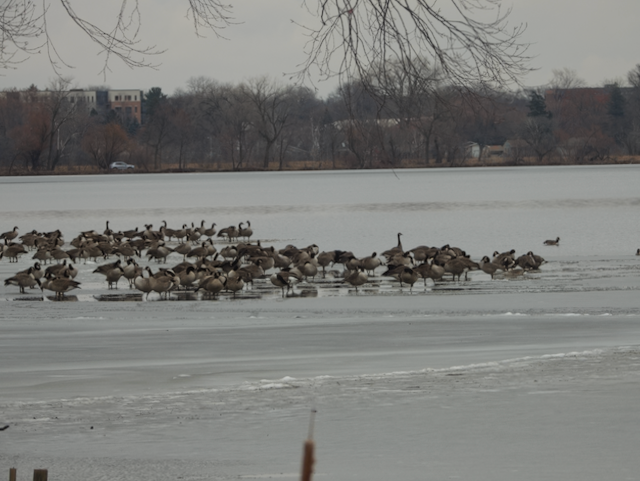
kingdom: Animalia
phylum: Chordata
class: Aves
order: Anseriformes
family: Anatidae
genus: Branta
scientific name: Branta canadensis
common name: Canada goose
